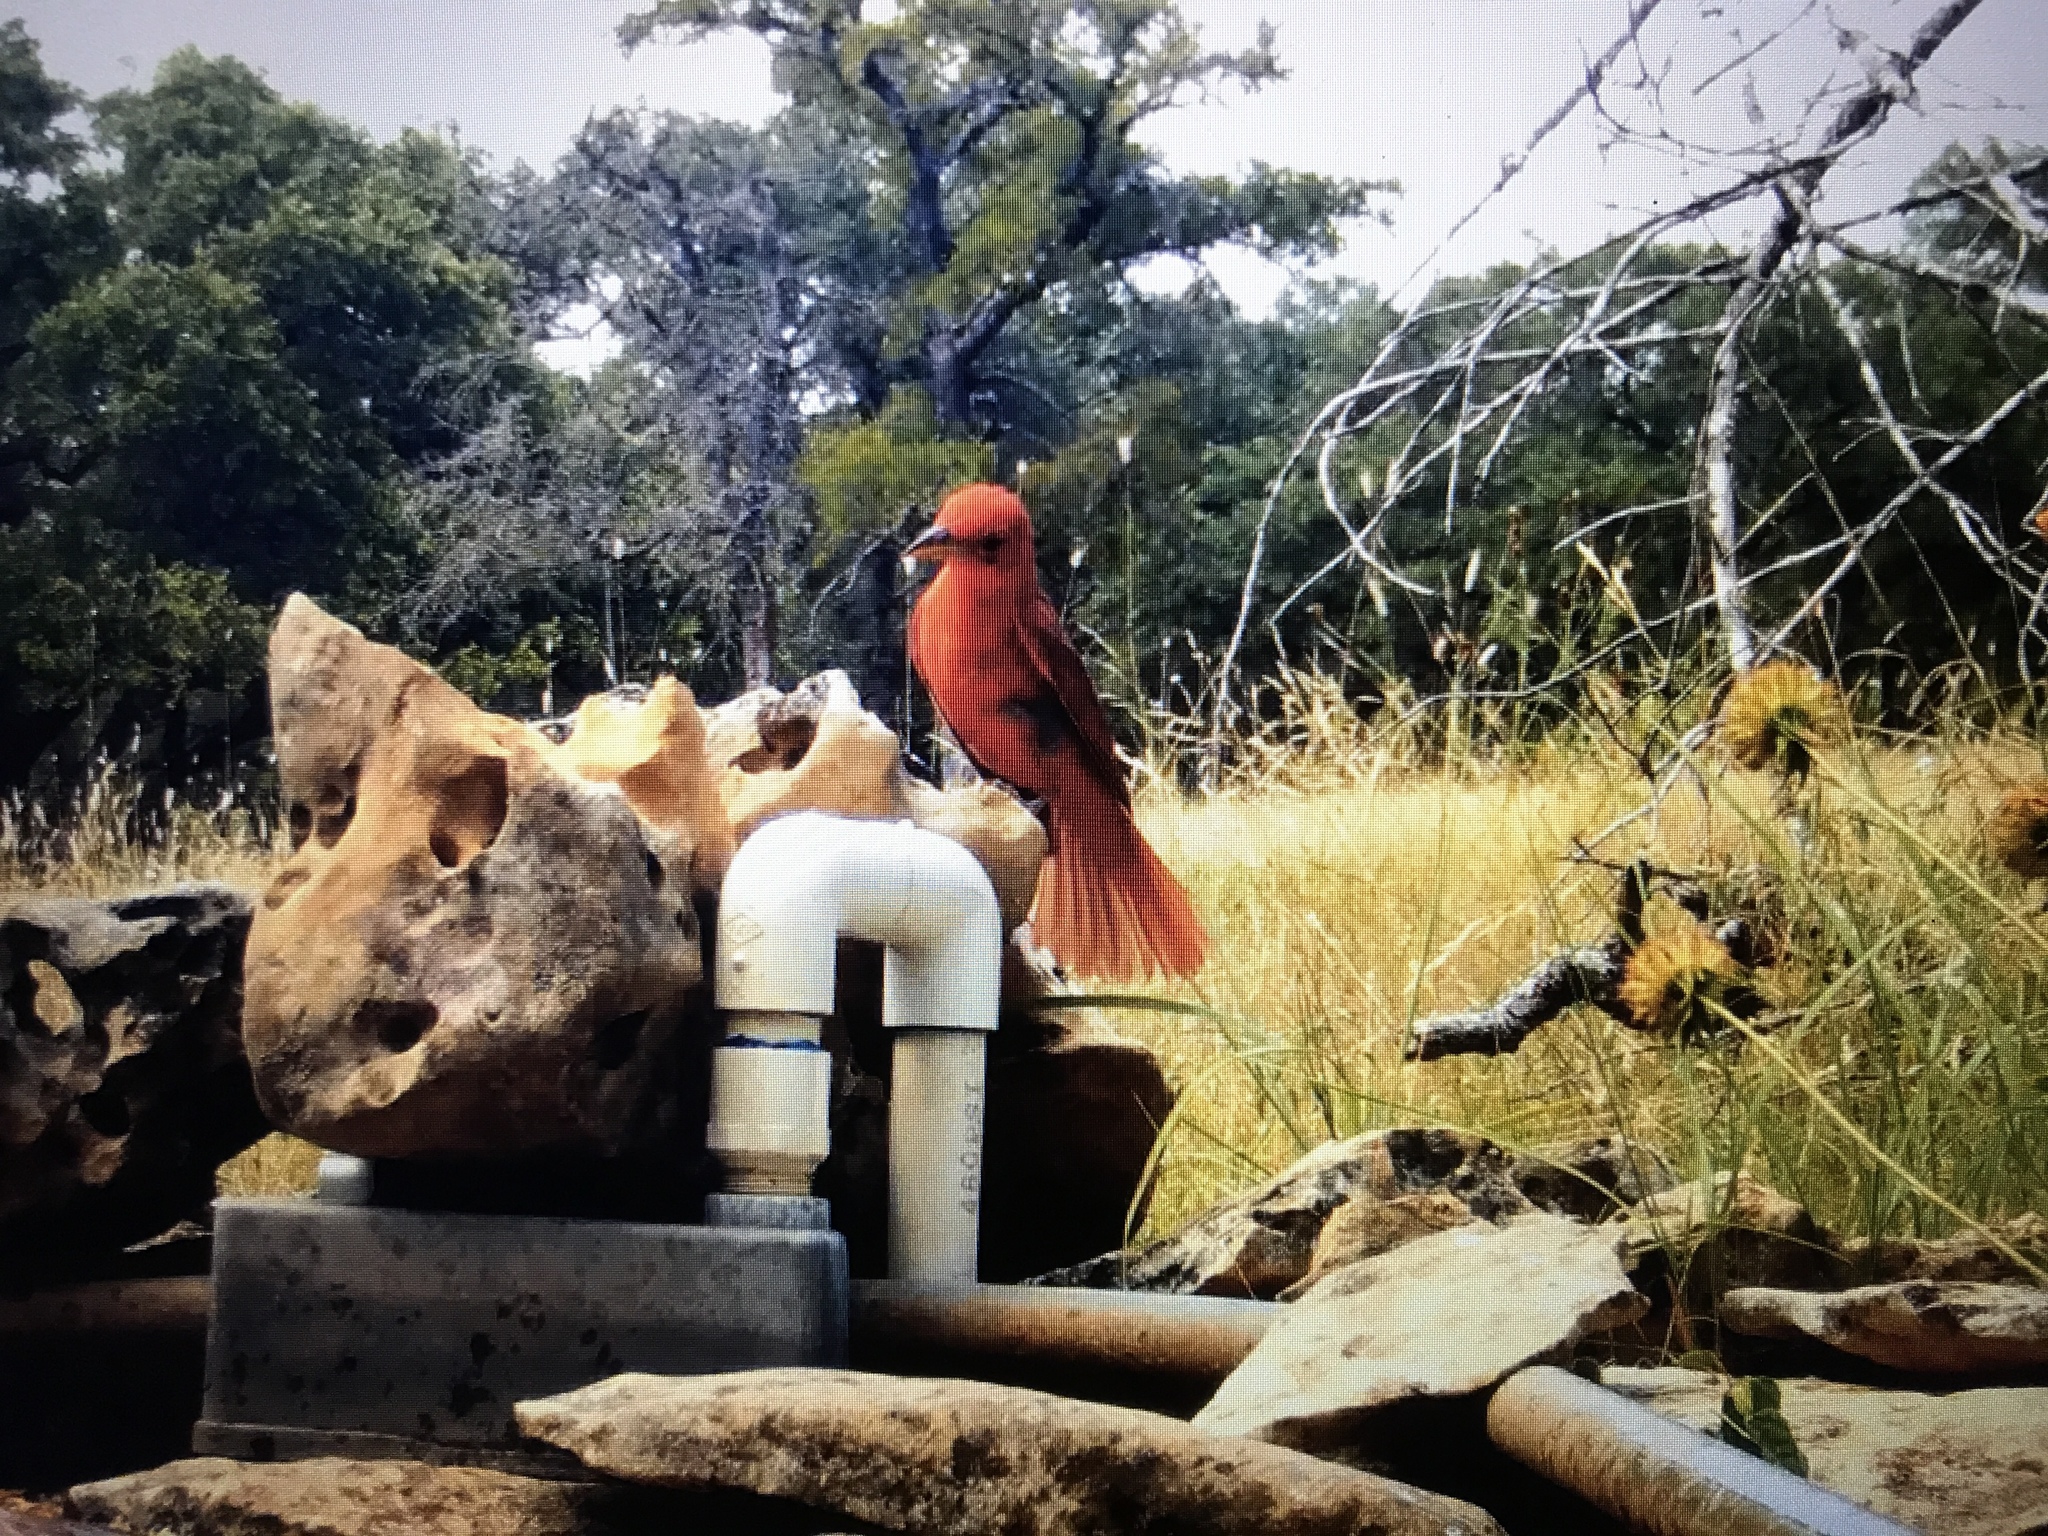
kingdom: Animalia
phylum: Chordata
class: Aves
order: Passeriformes
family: Cardinalidae
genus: Piranga
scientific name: Piranga rubra
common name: Summer tanager
